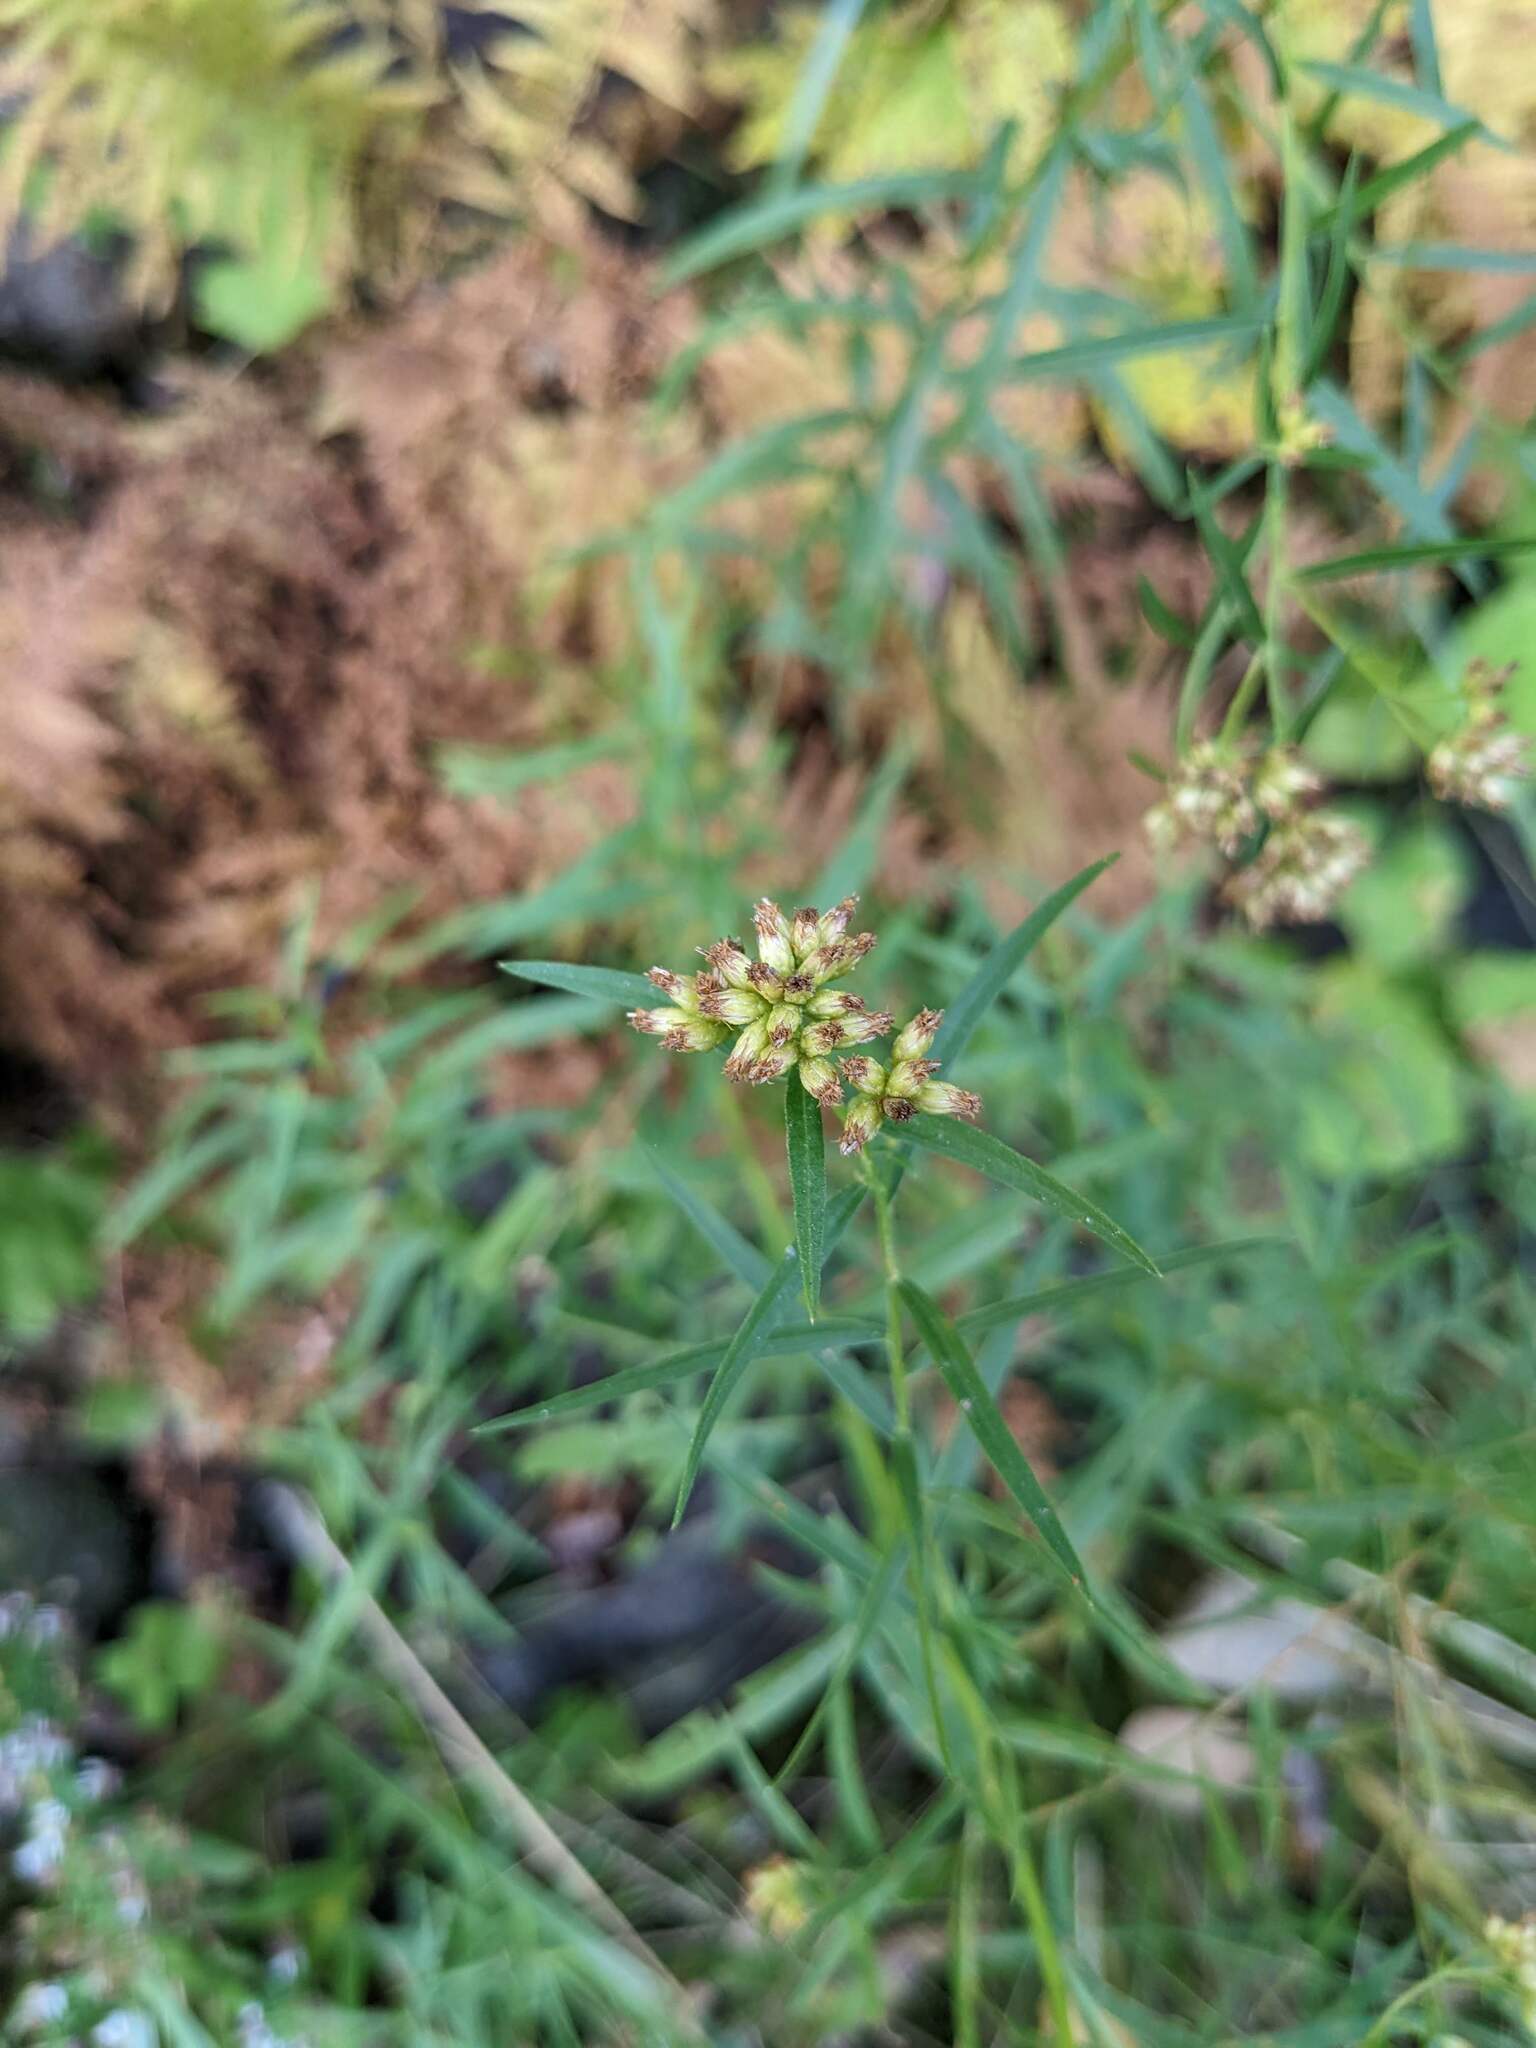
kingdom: Plantae
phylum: Tracheophyta
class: Magnoliopsida
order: Asterales
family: Asteraceae
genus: Euthamia
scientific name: Euthamia graminifolia
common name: Common goldentop
